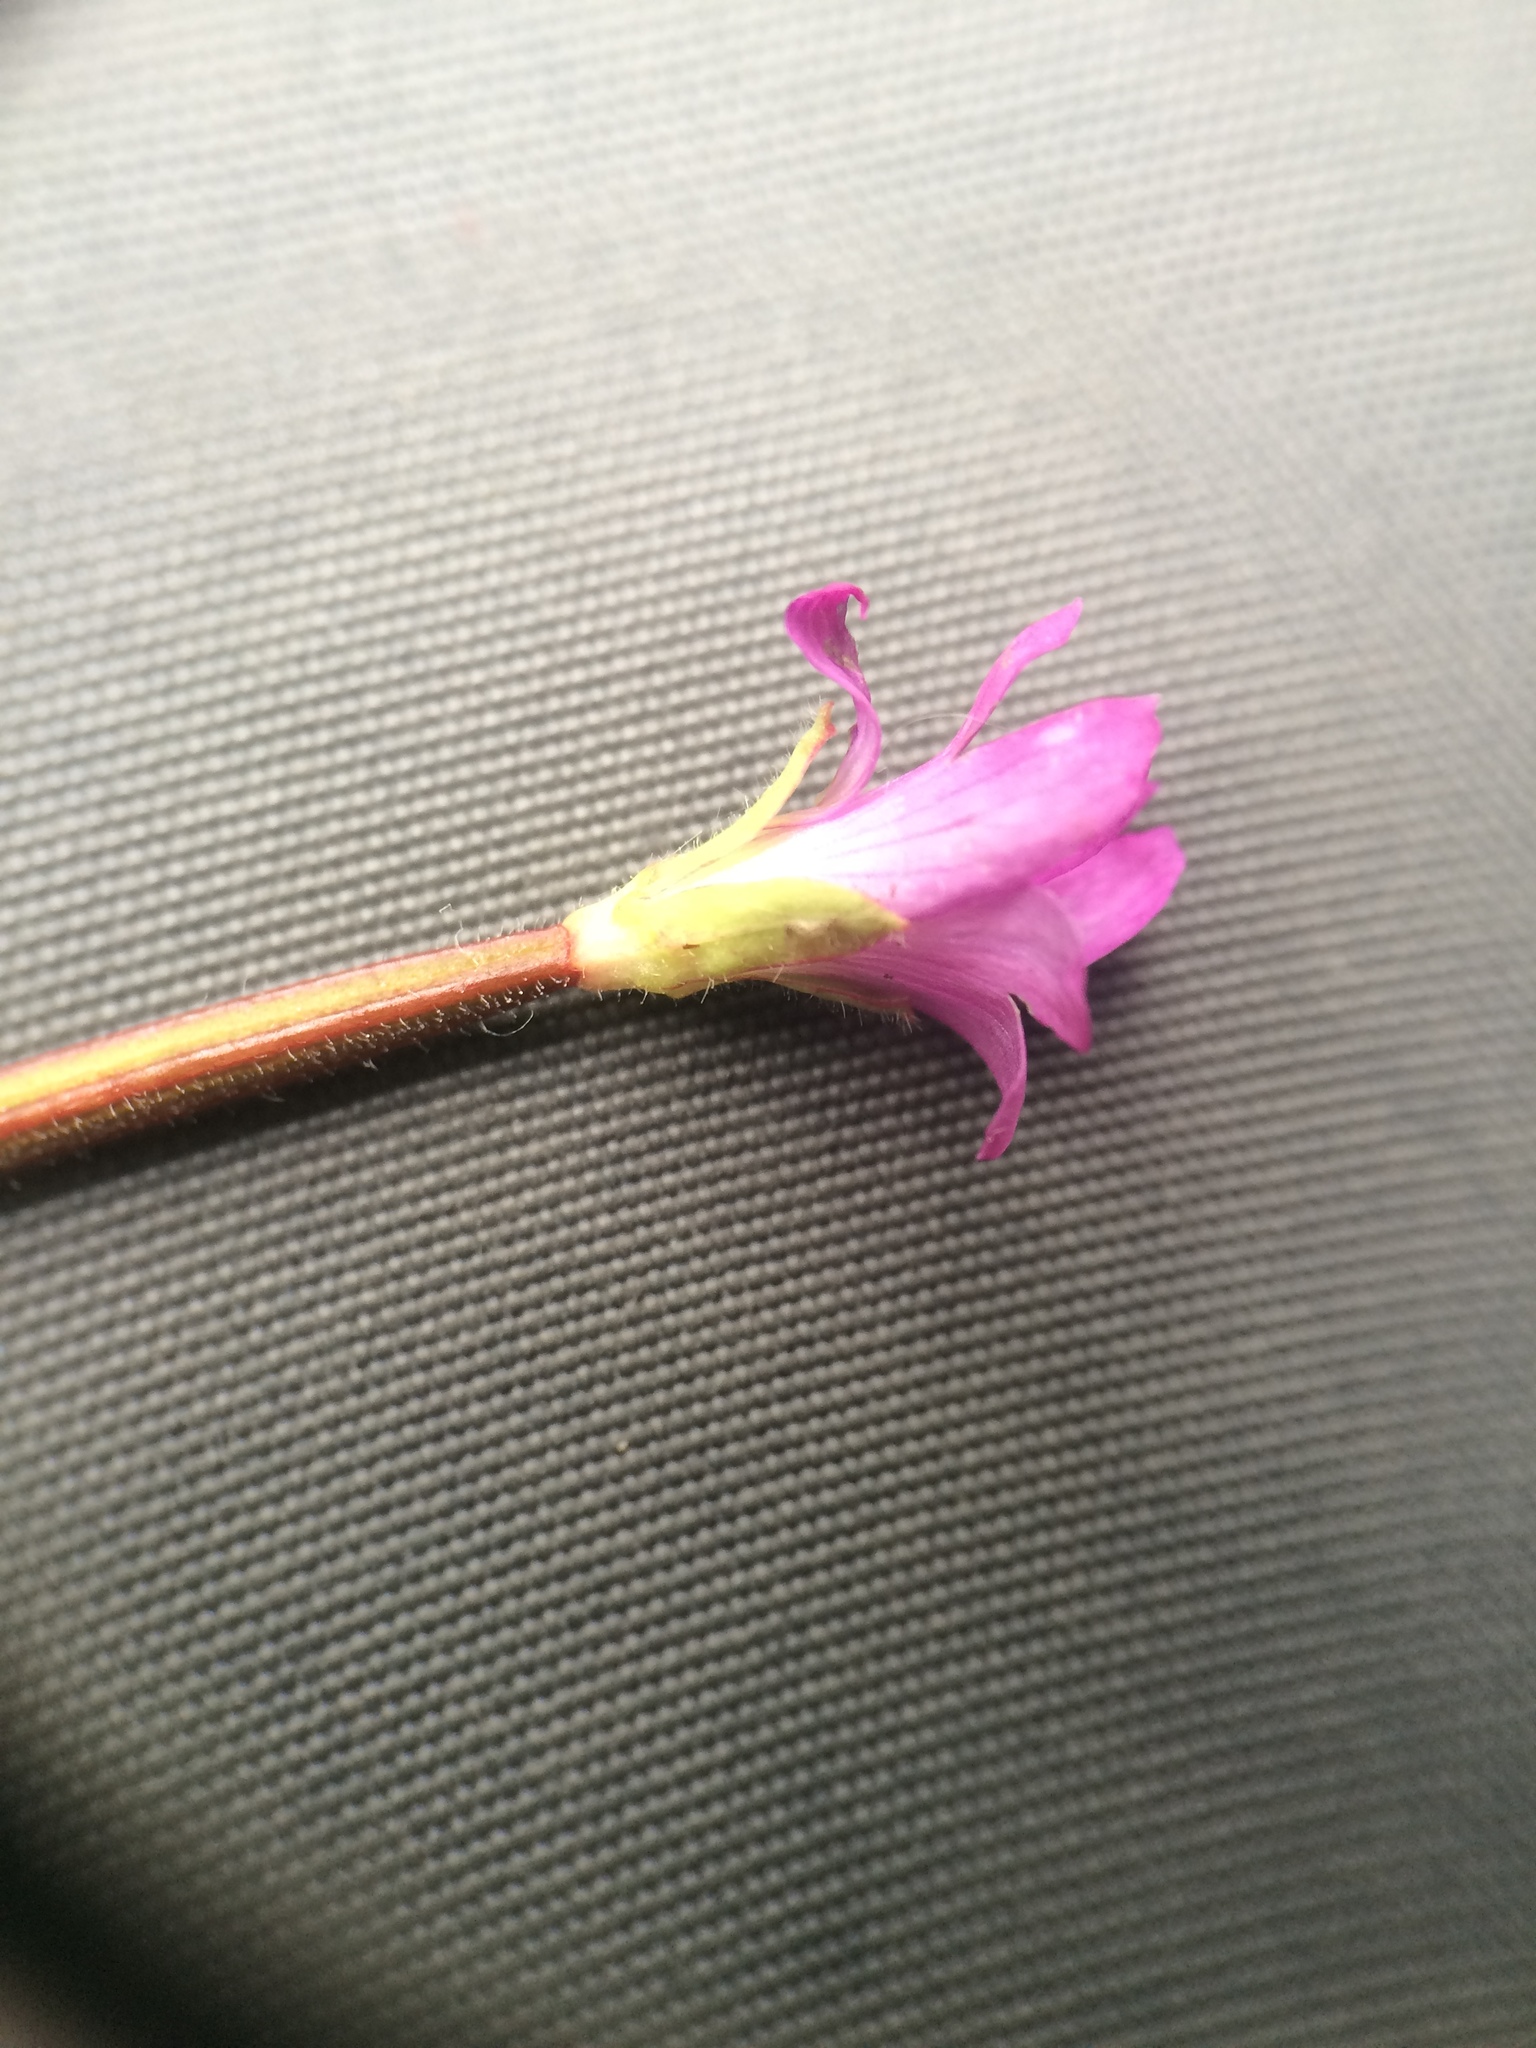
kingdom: Plantae
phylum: Tracheophyta
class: Magnoliopsida
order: Myrtales
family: Onagraceae
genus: Epilobium
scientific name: Epilobium parviflorum
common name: Hoary willowherb
